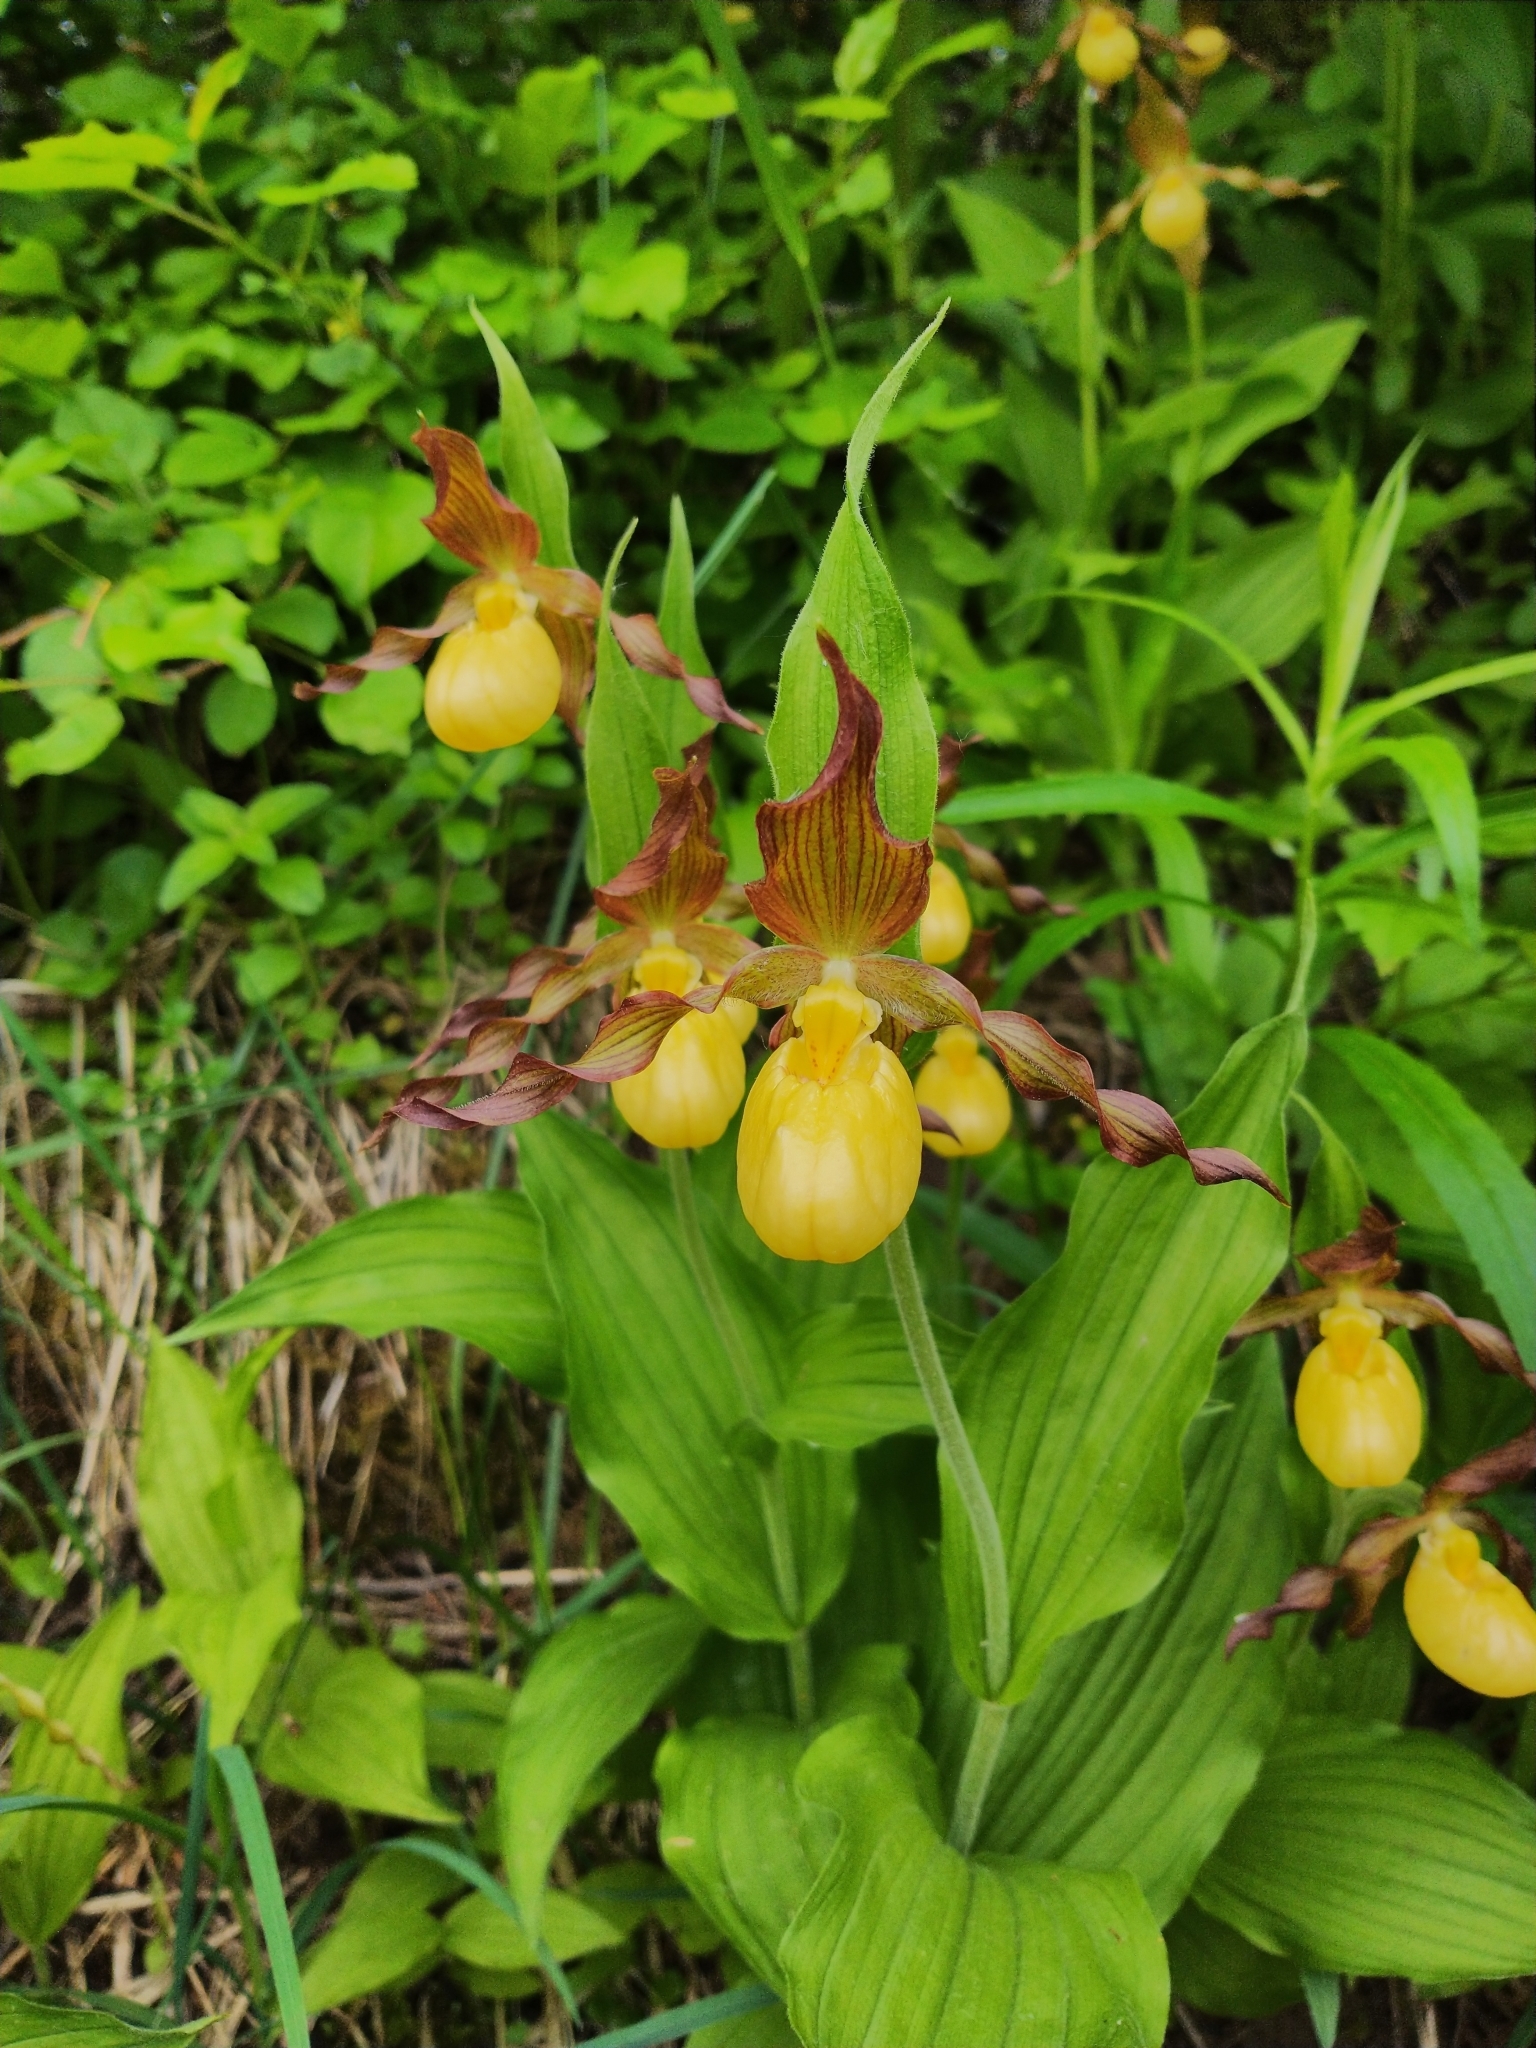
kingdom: Plantae
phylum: Tracheophyta
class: Liliopsida
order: Asparagales
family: Orchidaceae
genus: Cypripedium
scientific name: Cypripedium parviflorum
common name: American yellow lady's-slipper
